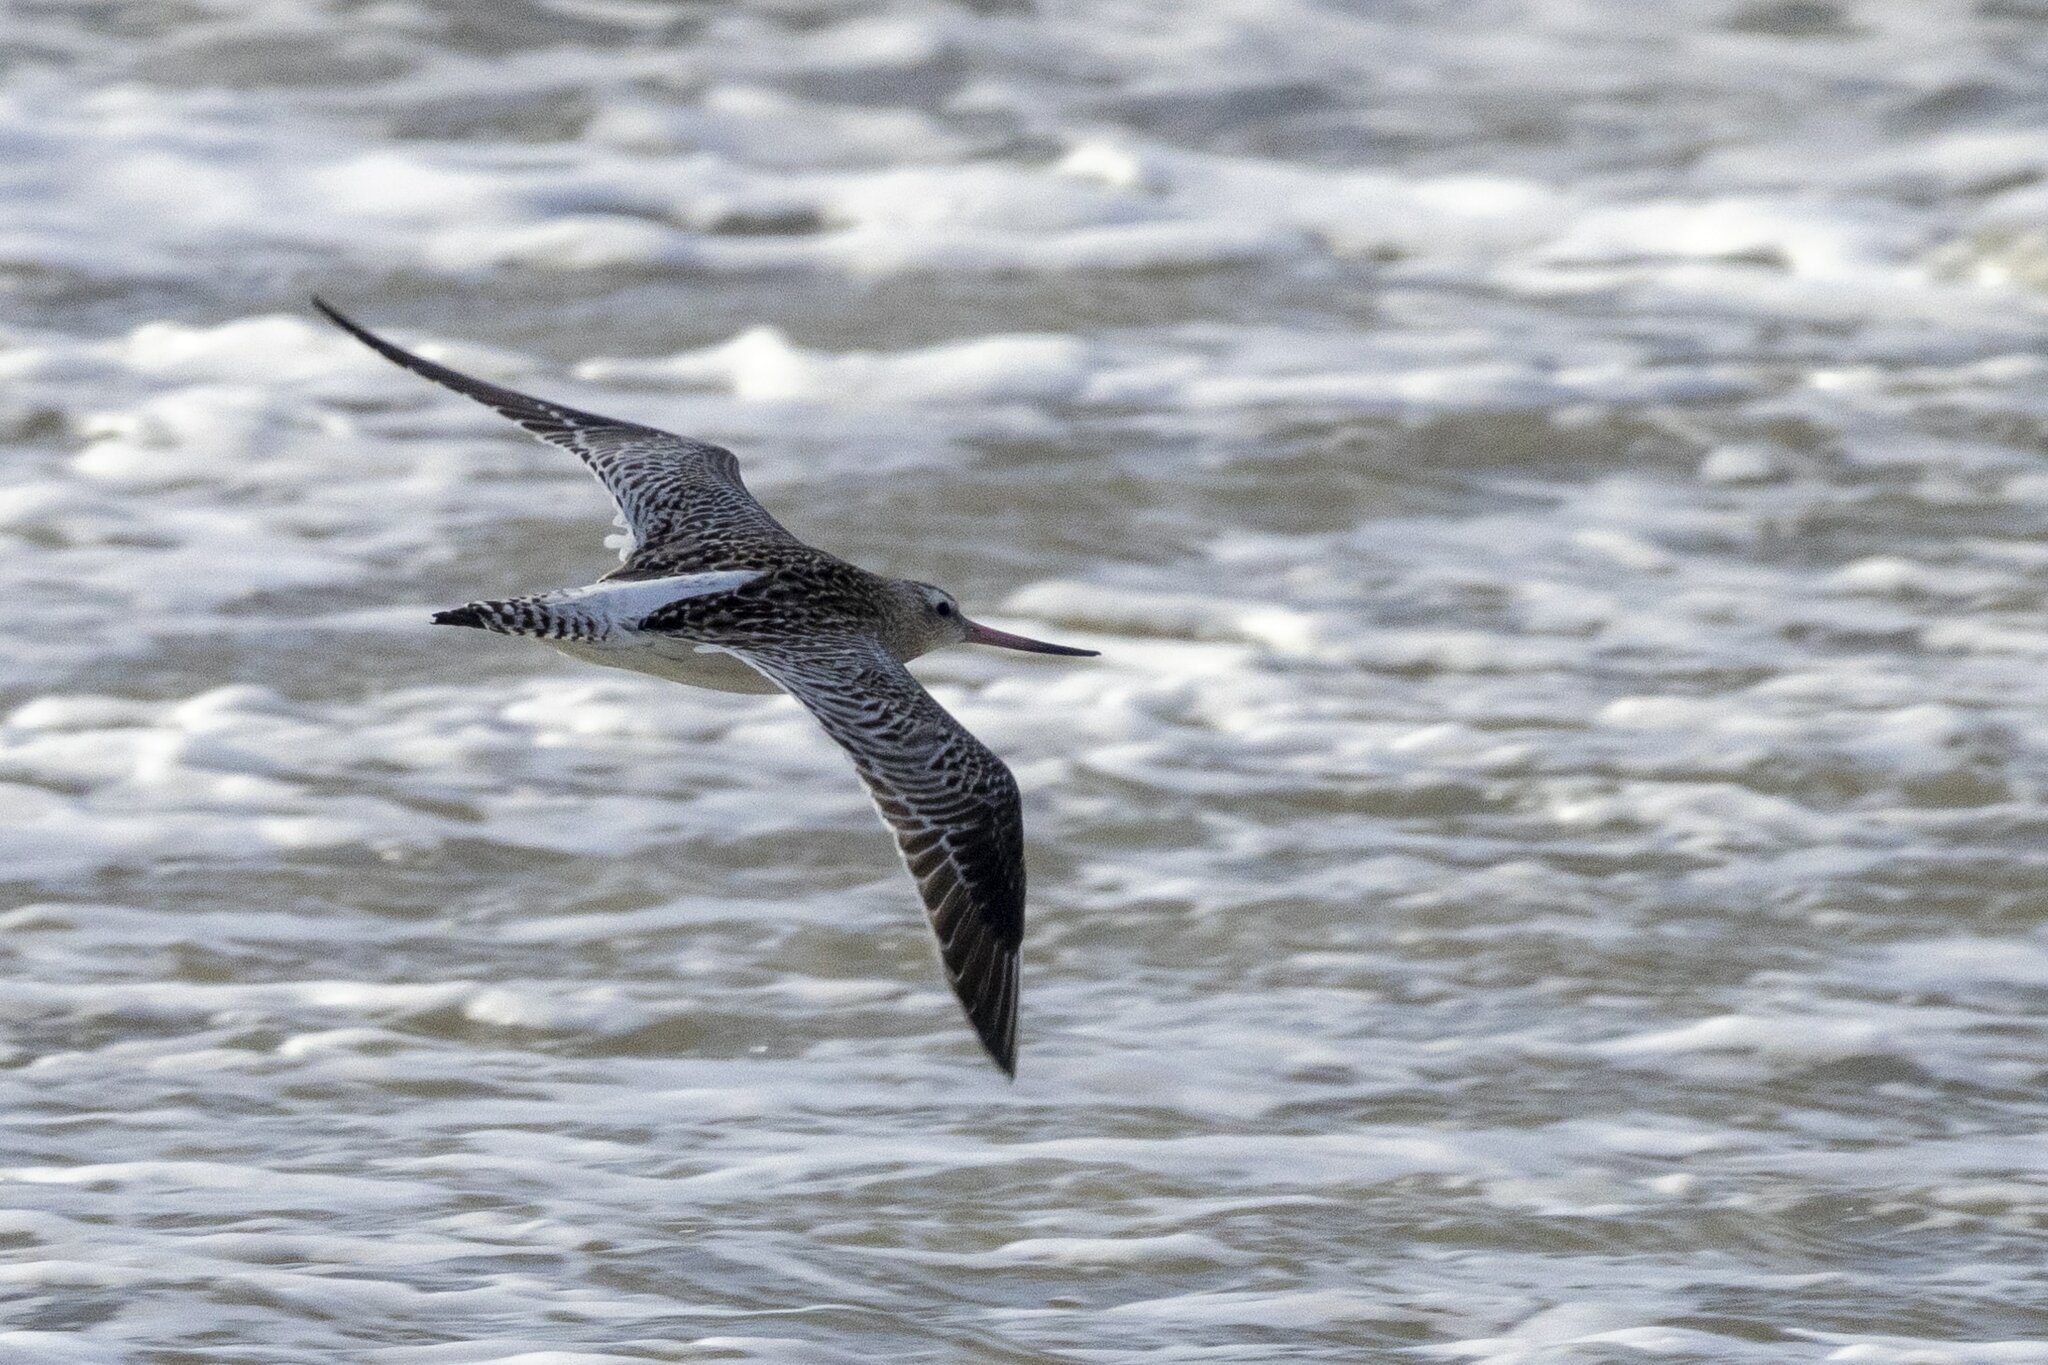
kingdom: Animalia
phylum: Chordata
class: Aves
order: Charadriiformes
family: Scolopacidae
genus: Limosa
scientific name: Limosa lapponica
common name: Bar-tailed godwit
